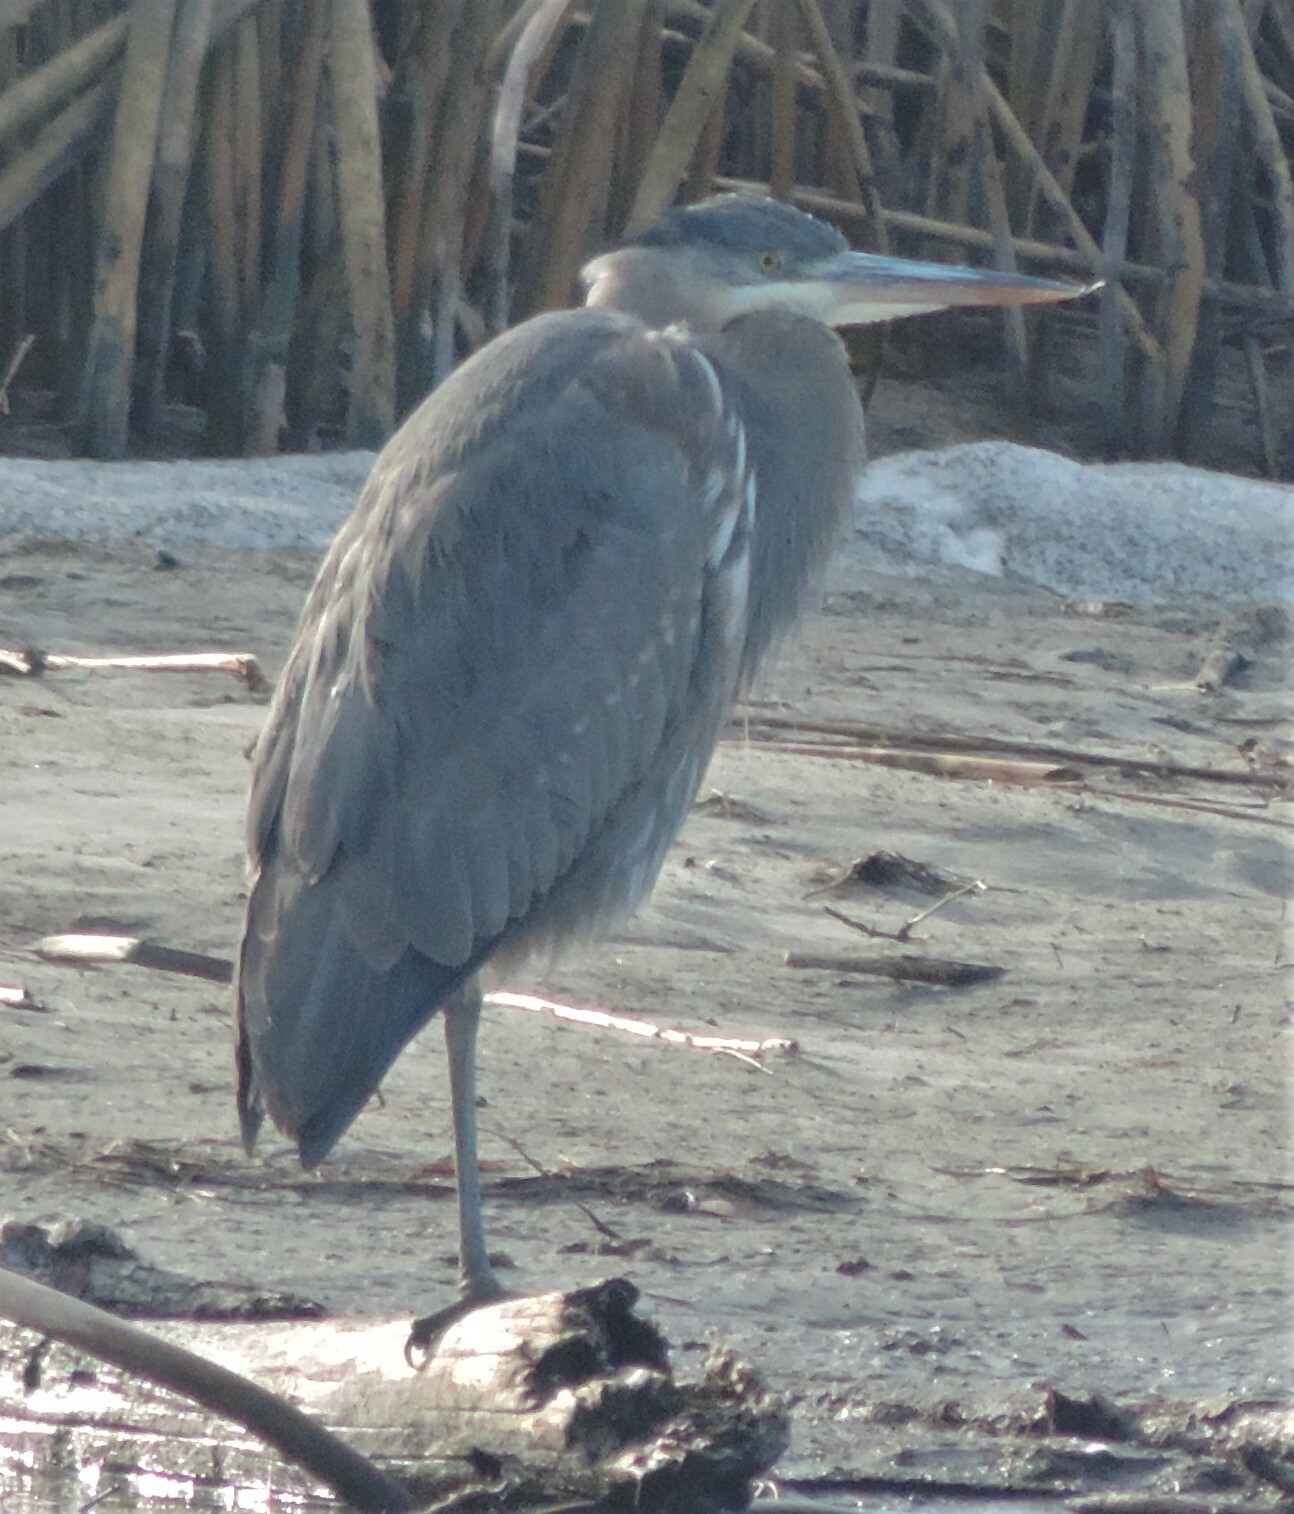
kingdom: Animalia
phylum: Chordata
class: Aves
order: Pelecaniformes
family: Ardeidae
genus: Ardea
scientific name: Ardea herodias
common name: Great blue heron
